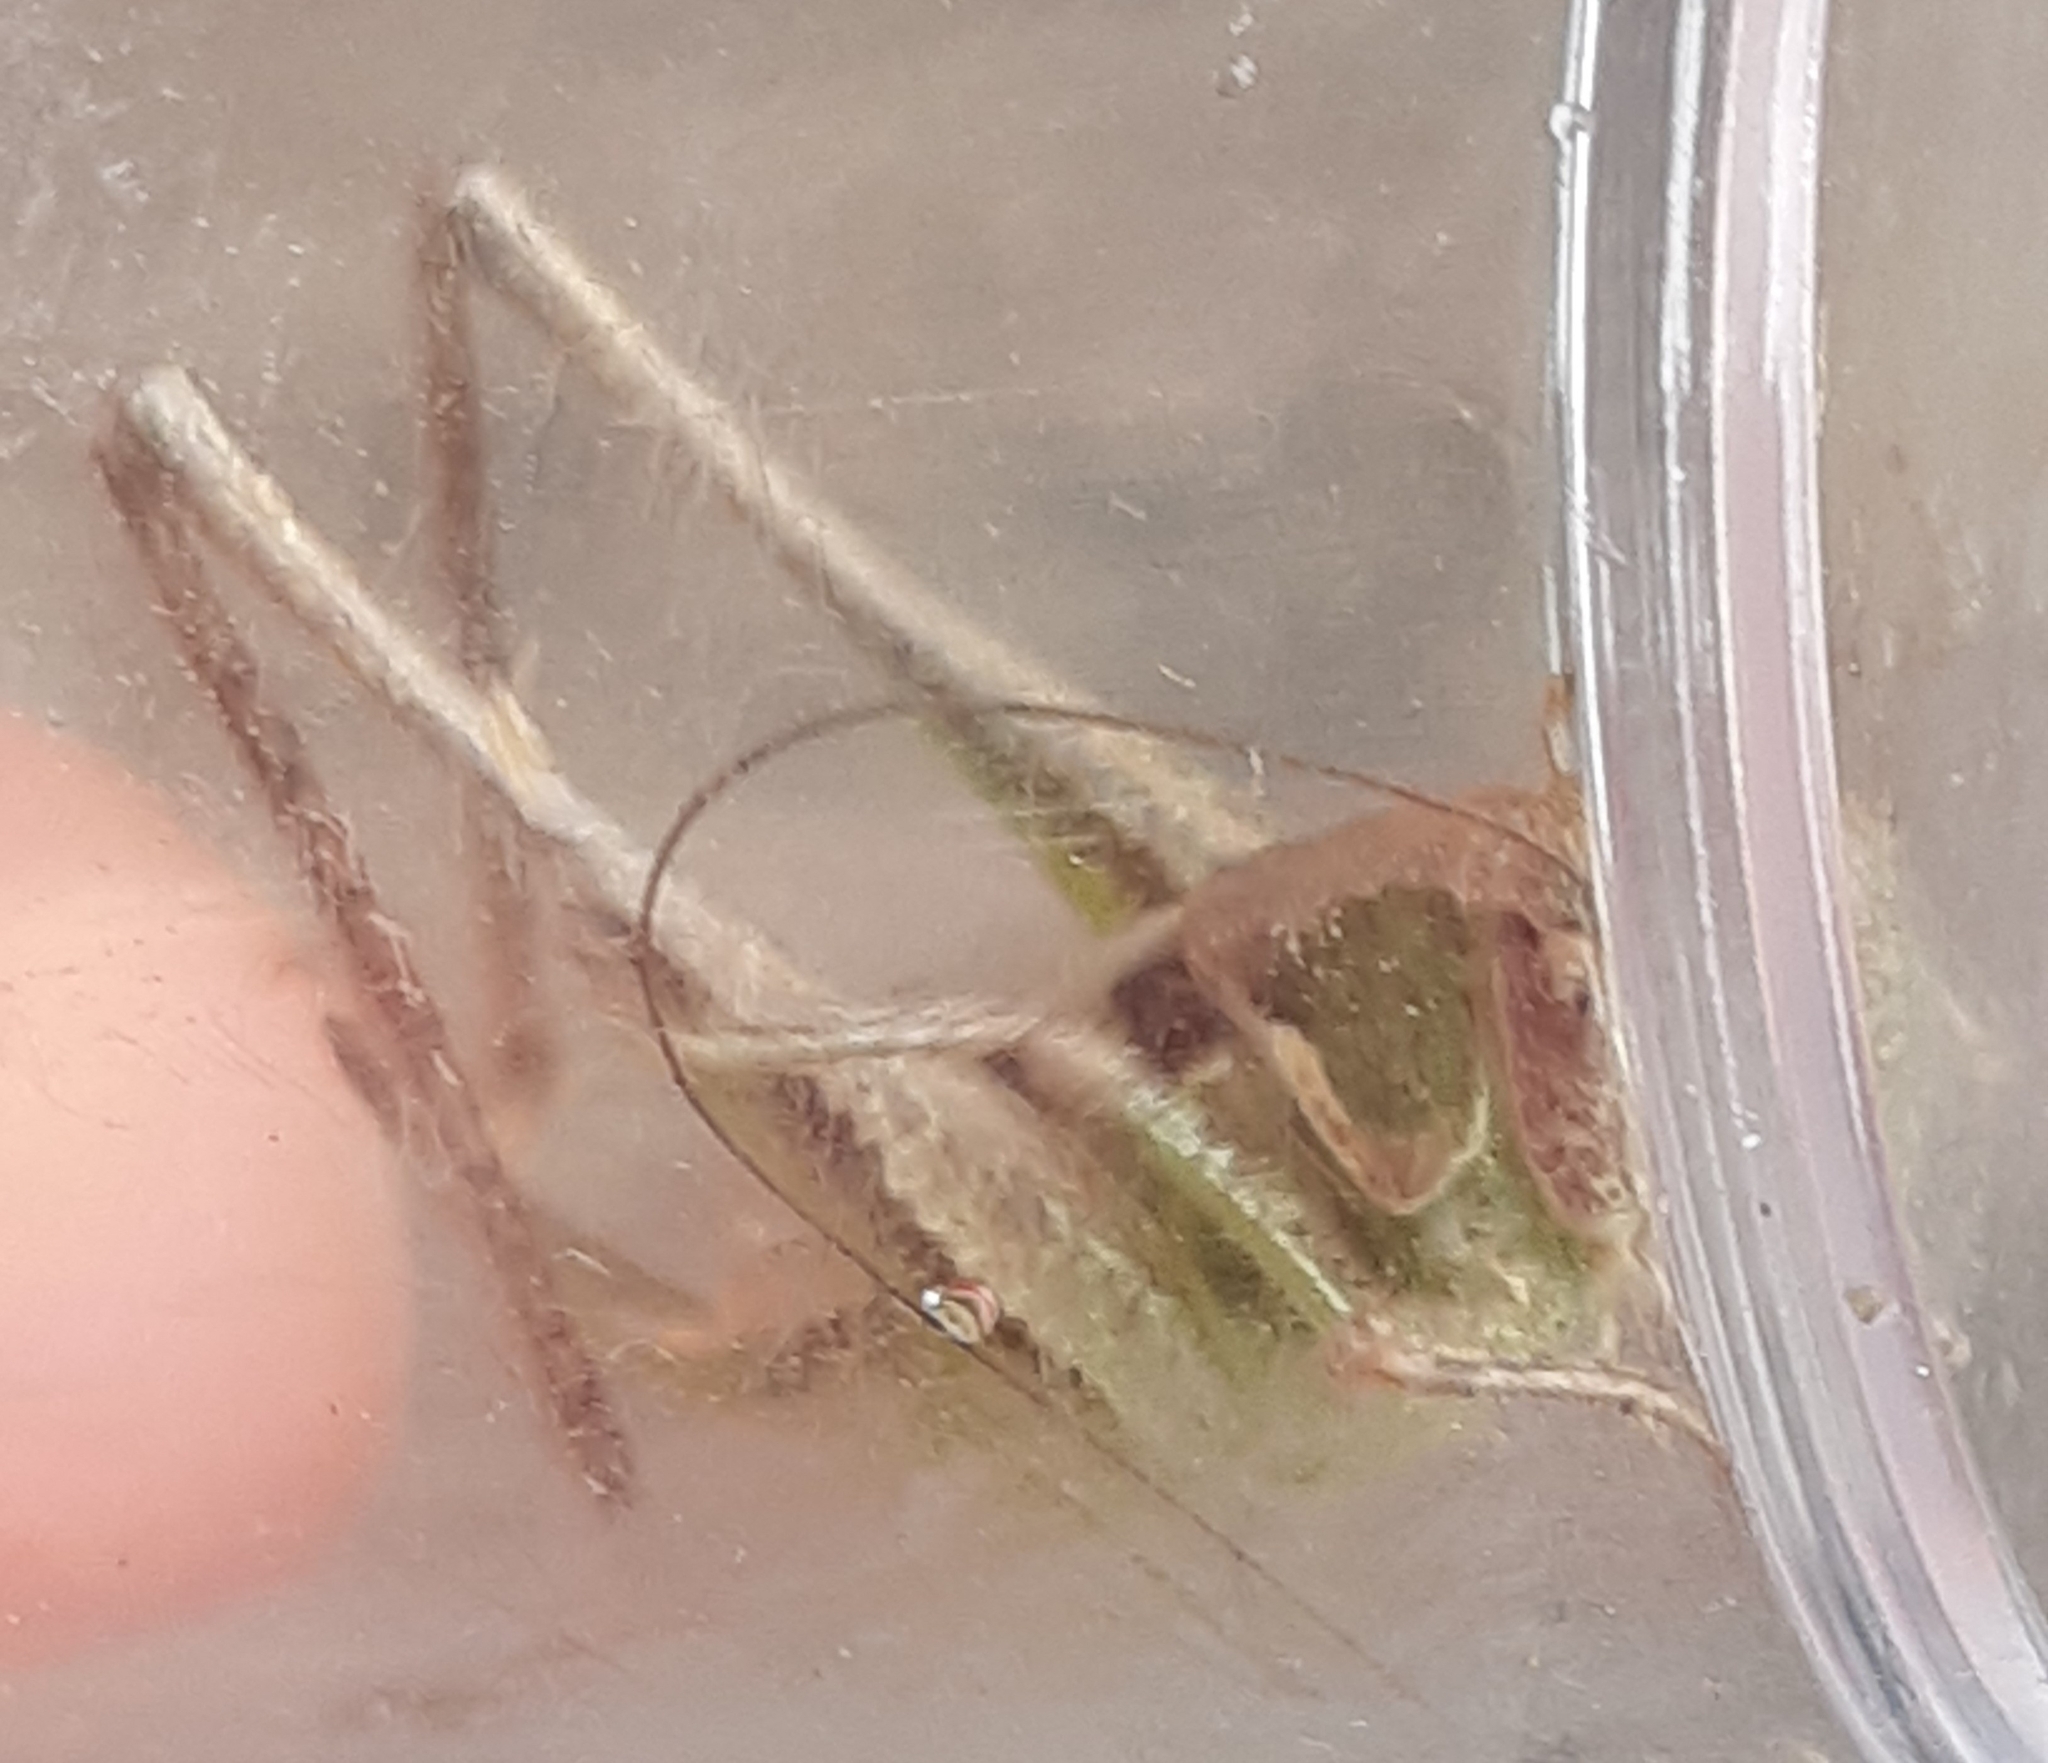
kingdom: Animalia
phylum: Arthropoda
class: Insecta
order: Orthoptera
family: Tettigoniidae
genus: Platycleis
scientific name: Platycleis grisea
